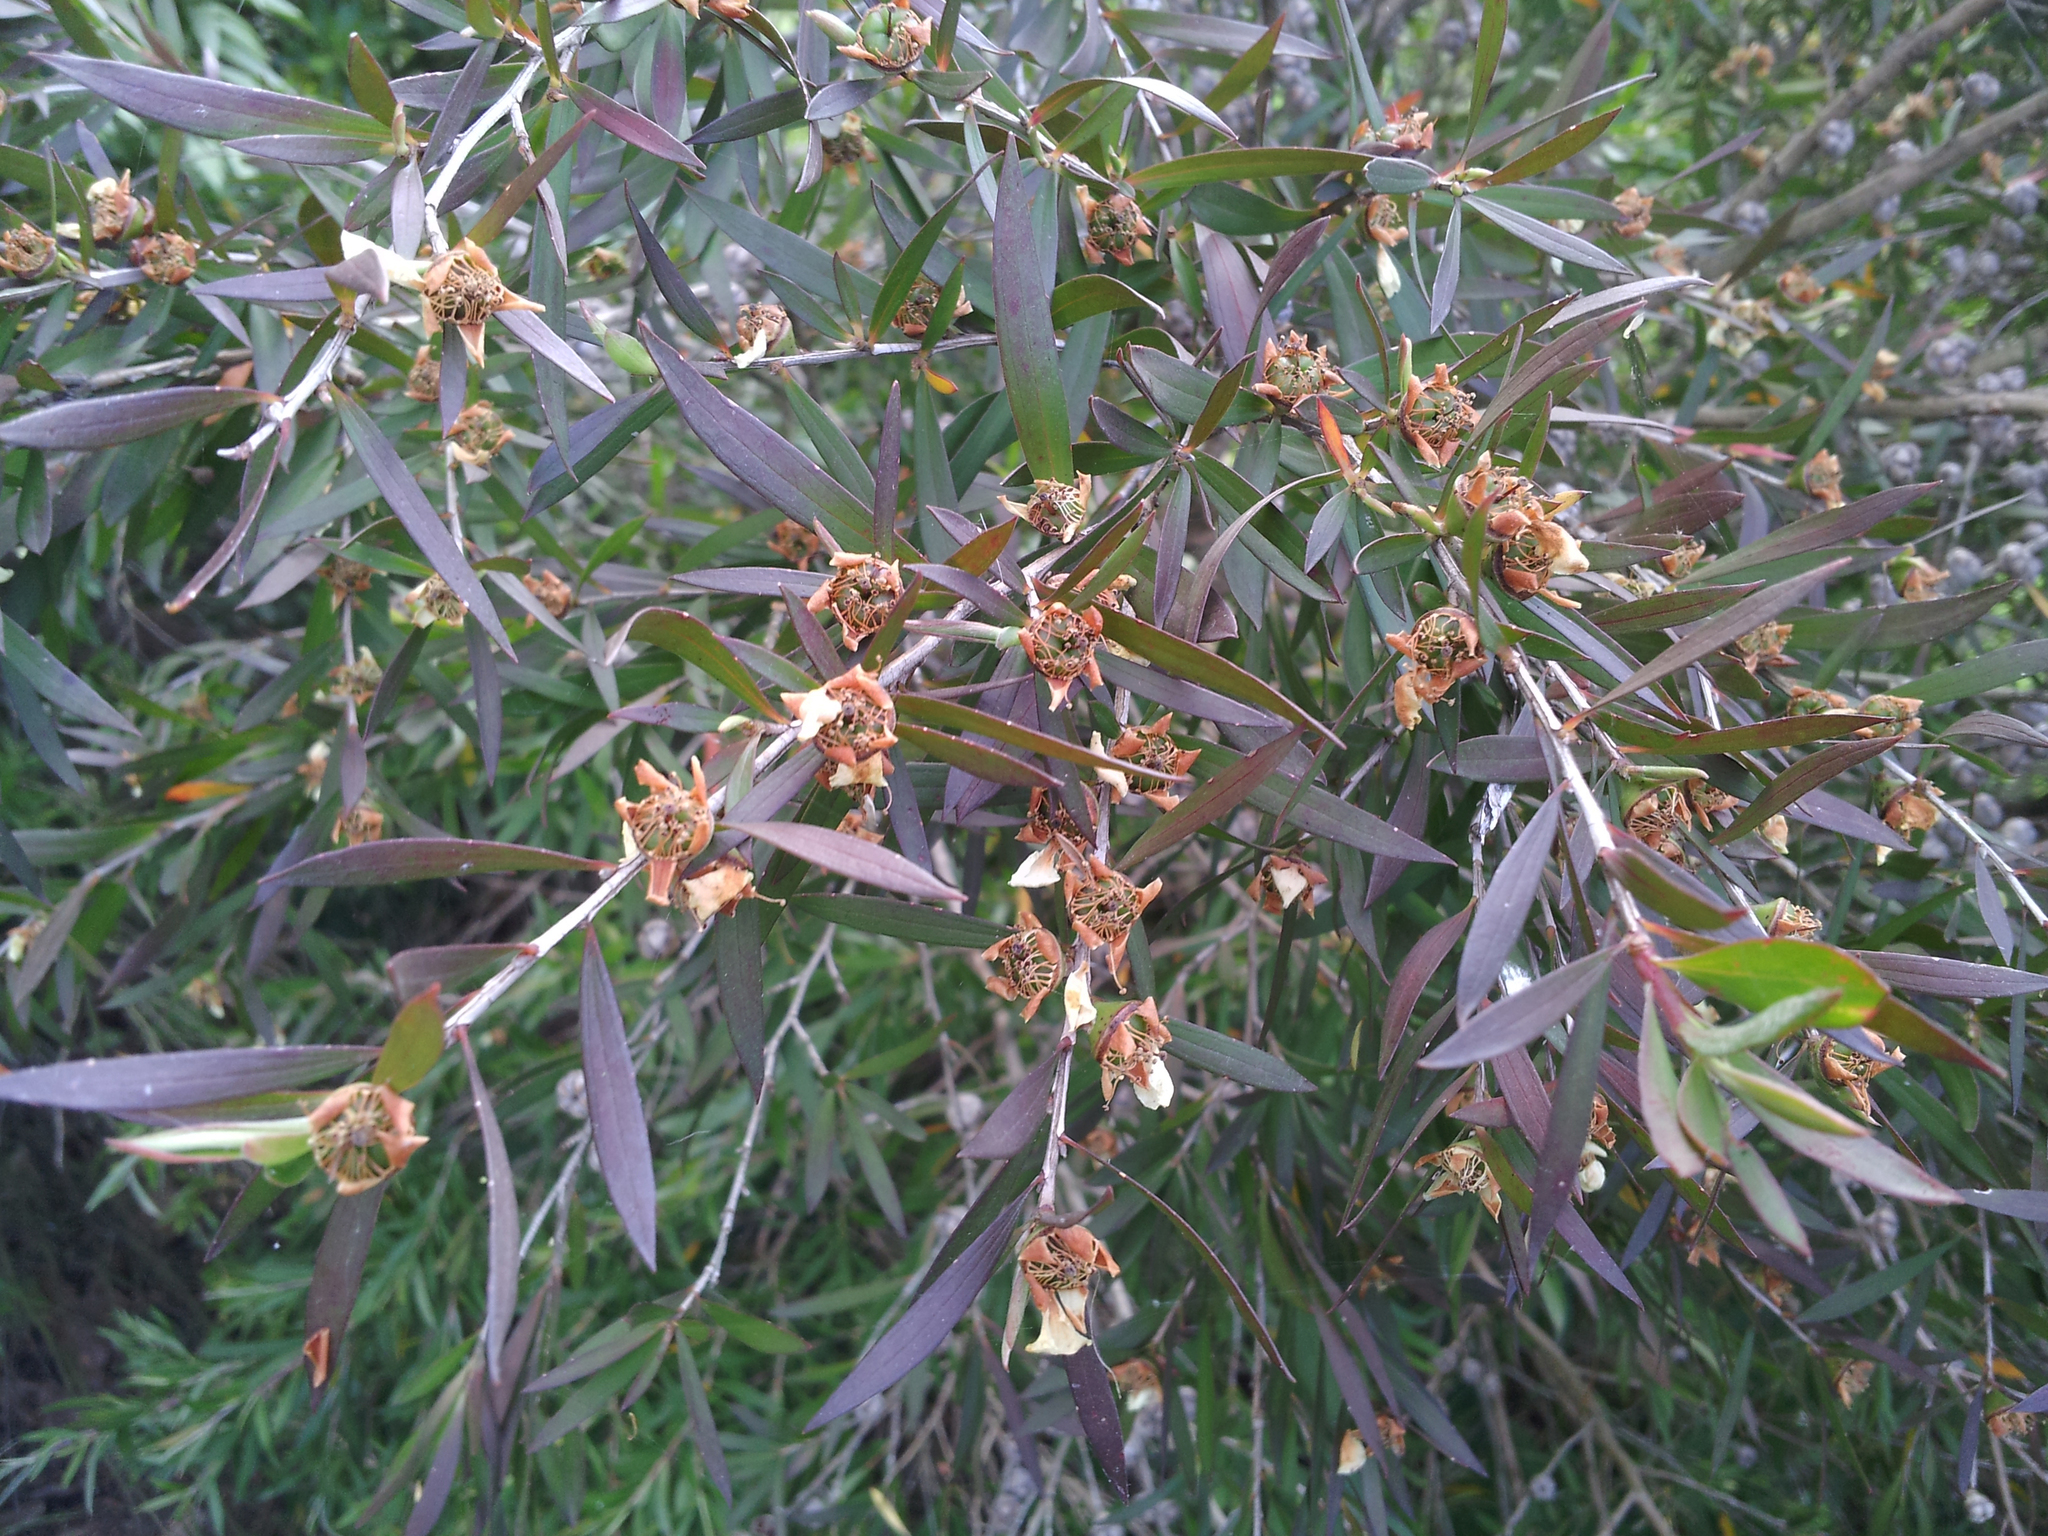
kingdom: Plantae
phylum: Tracheophyta
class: Magnoliopsida
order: Myrtales
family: Myrtaceae
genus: Leptospermum
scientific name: Leptospermum morrisonii
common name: Large-leaf yellow teatree
